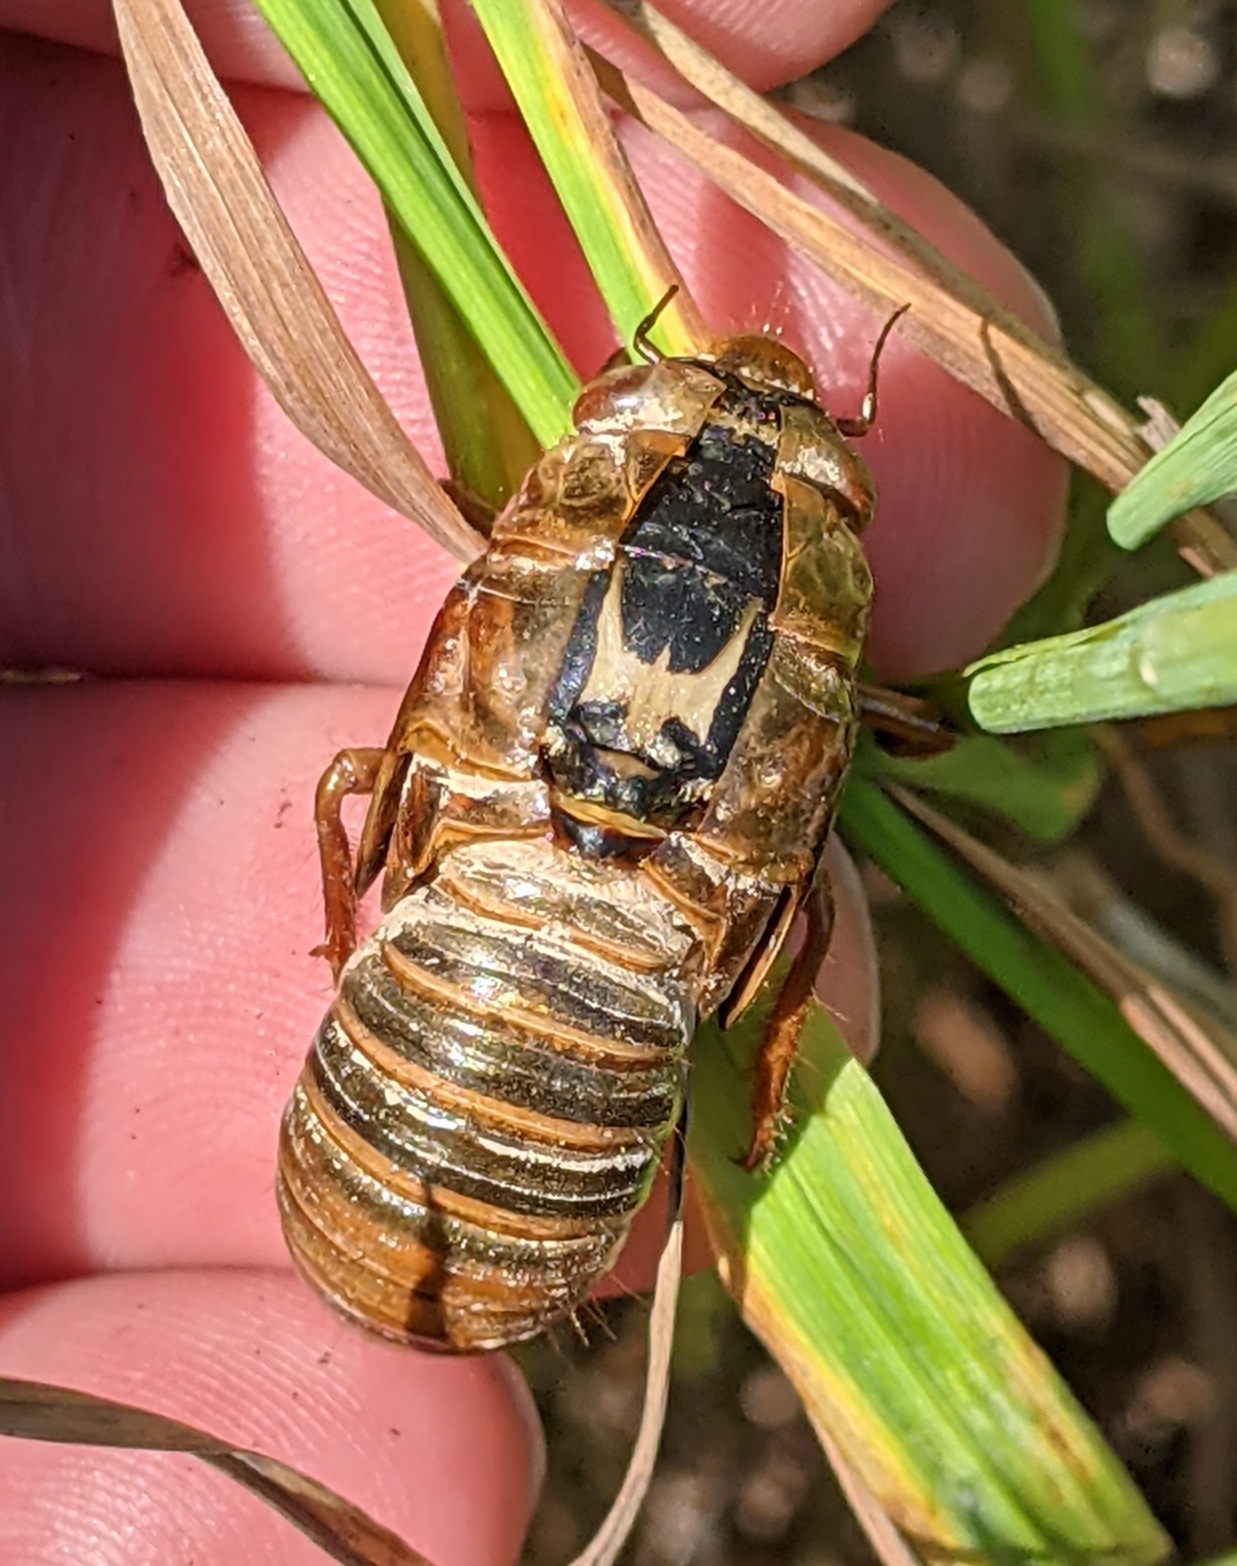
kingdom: Animalia
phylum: Arthropoda
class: Insecta
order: Hemiptera
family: Cicadidae
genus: Magicicada
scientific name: Magicicada septendecim
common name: Periodical cicada
